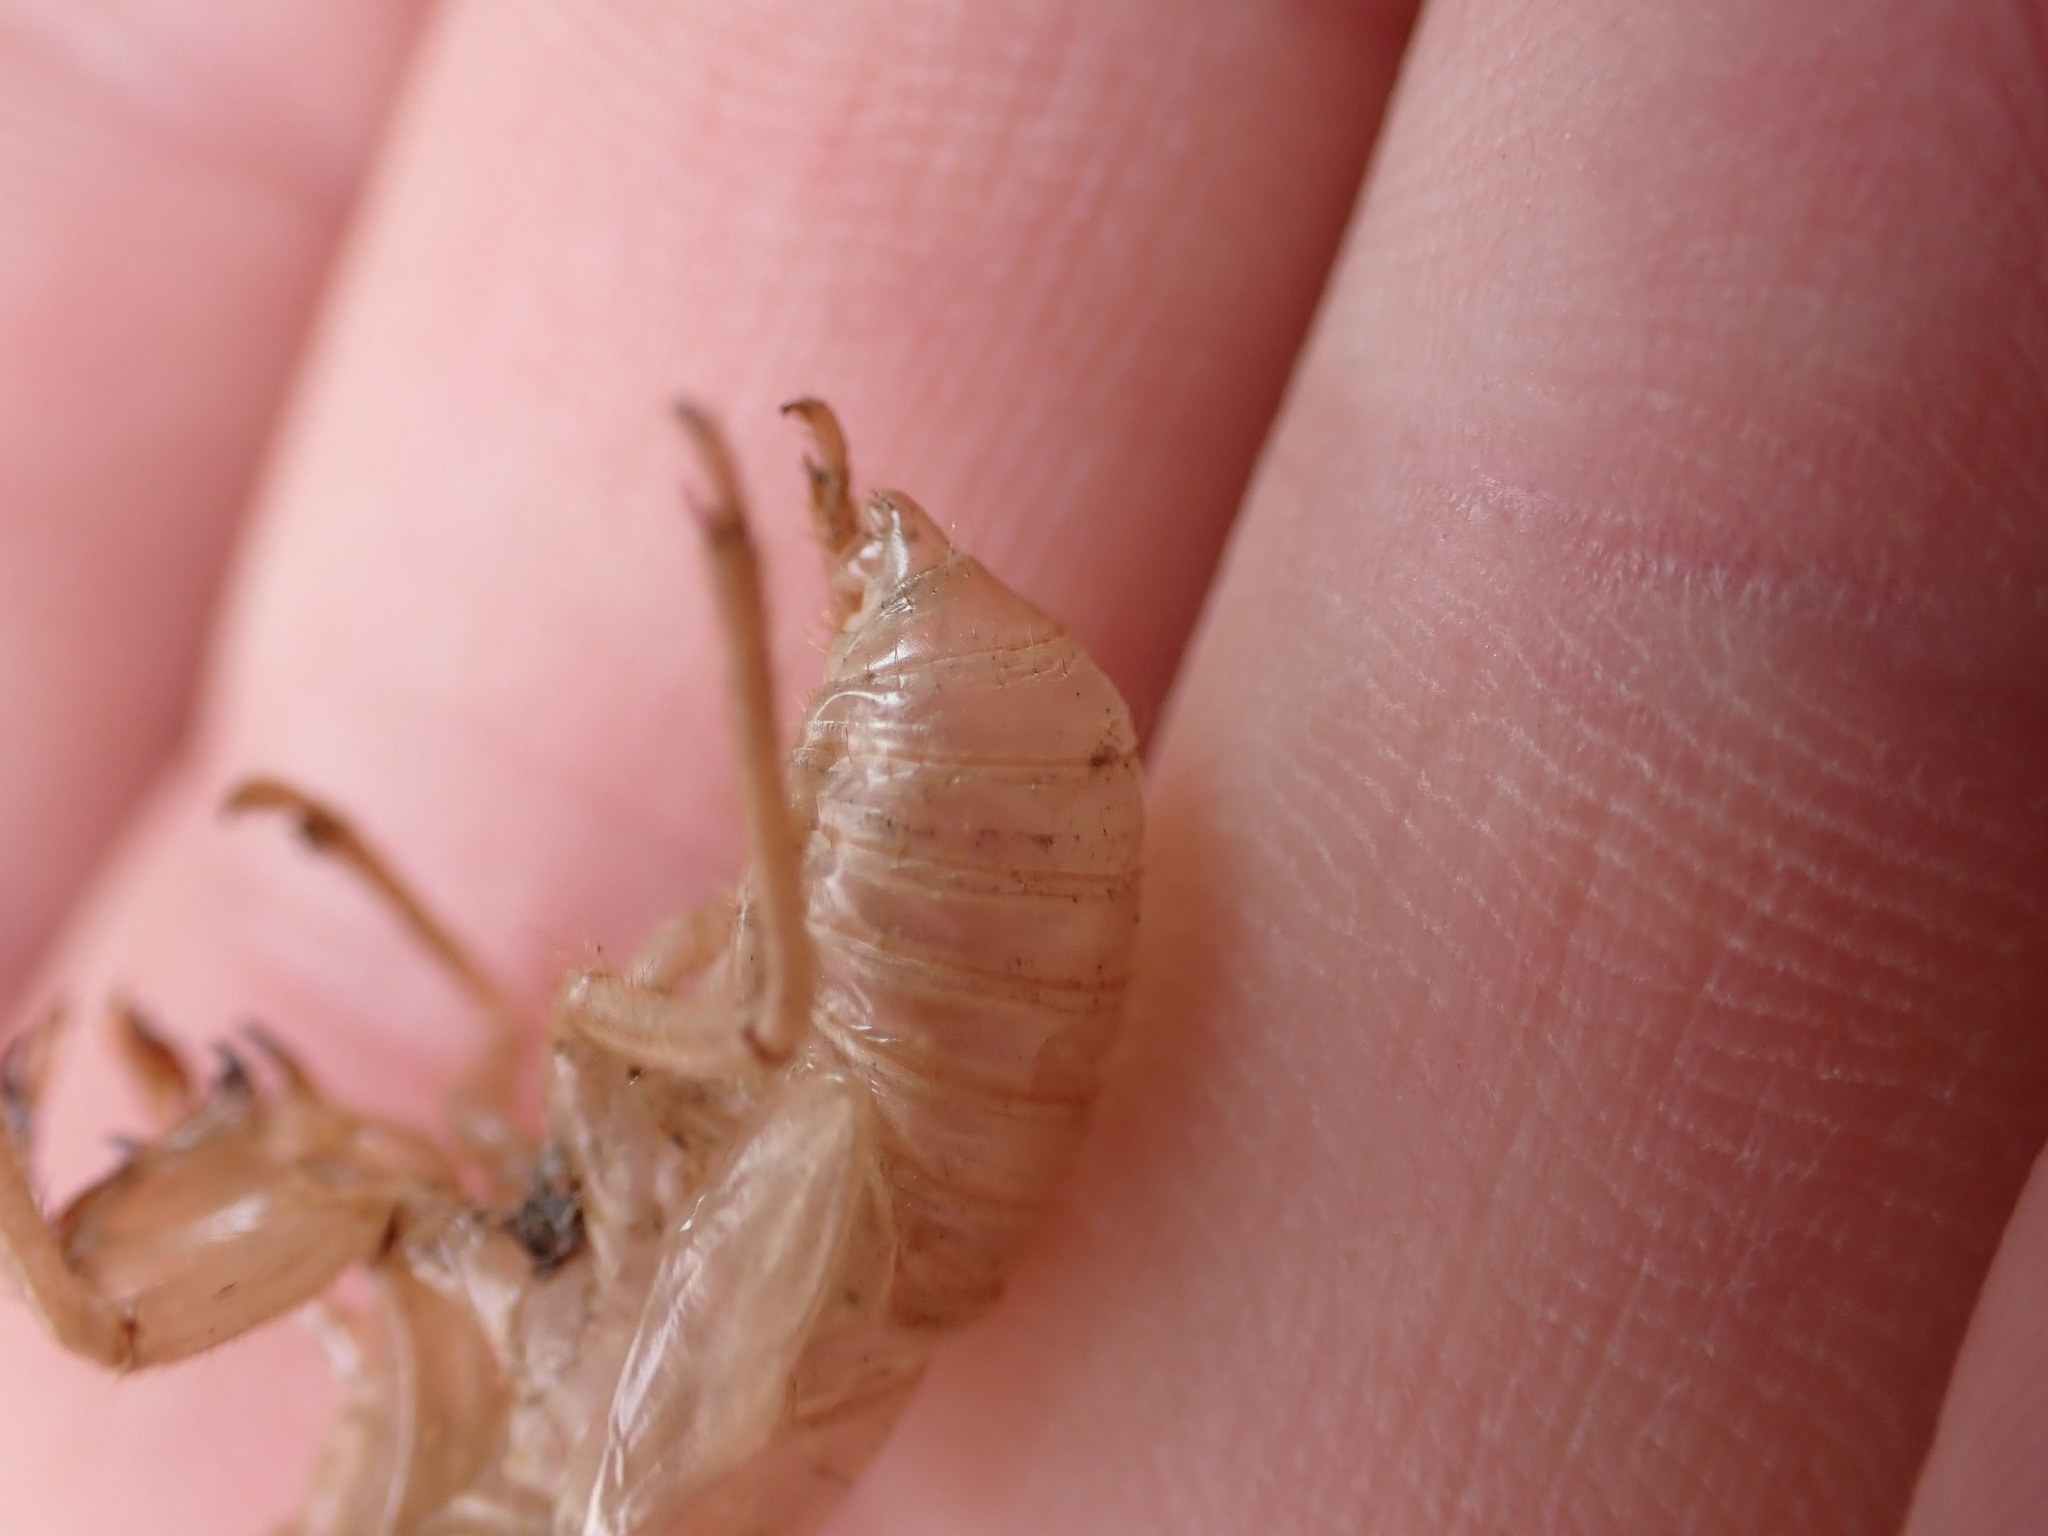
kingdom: Animalia
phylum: Arthropoda
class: Insecta
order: Hemiptera
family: Cicadidae
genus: Cicada
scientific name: Cicada orni
